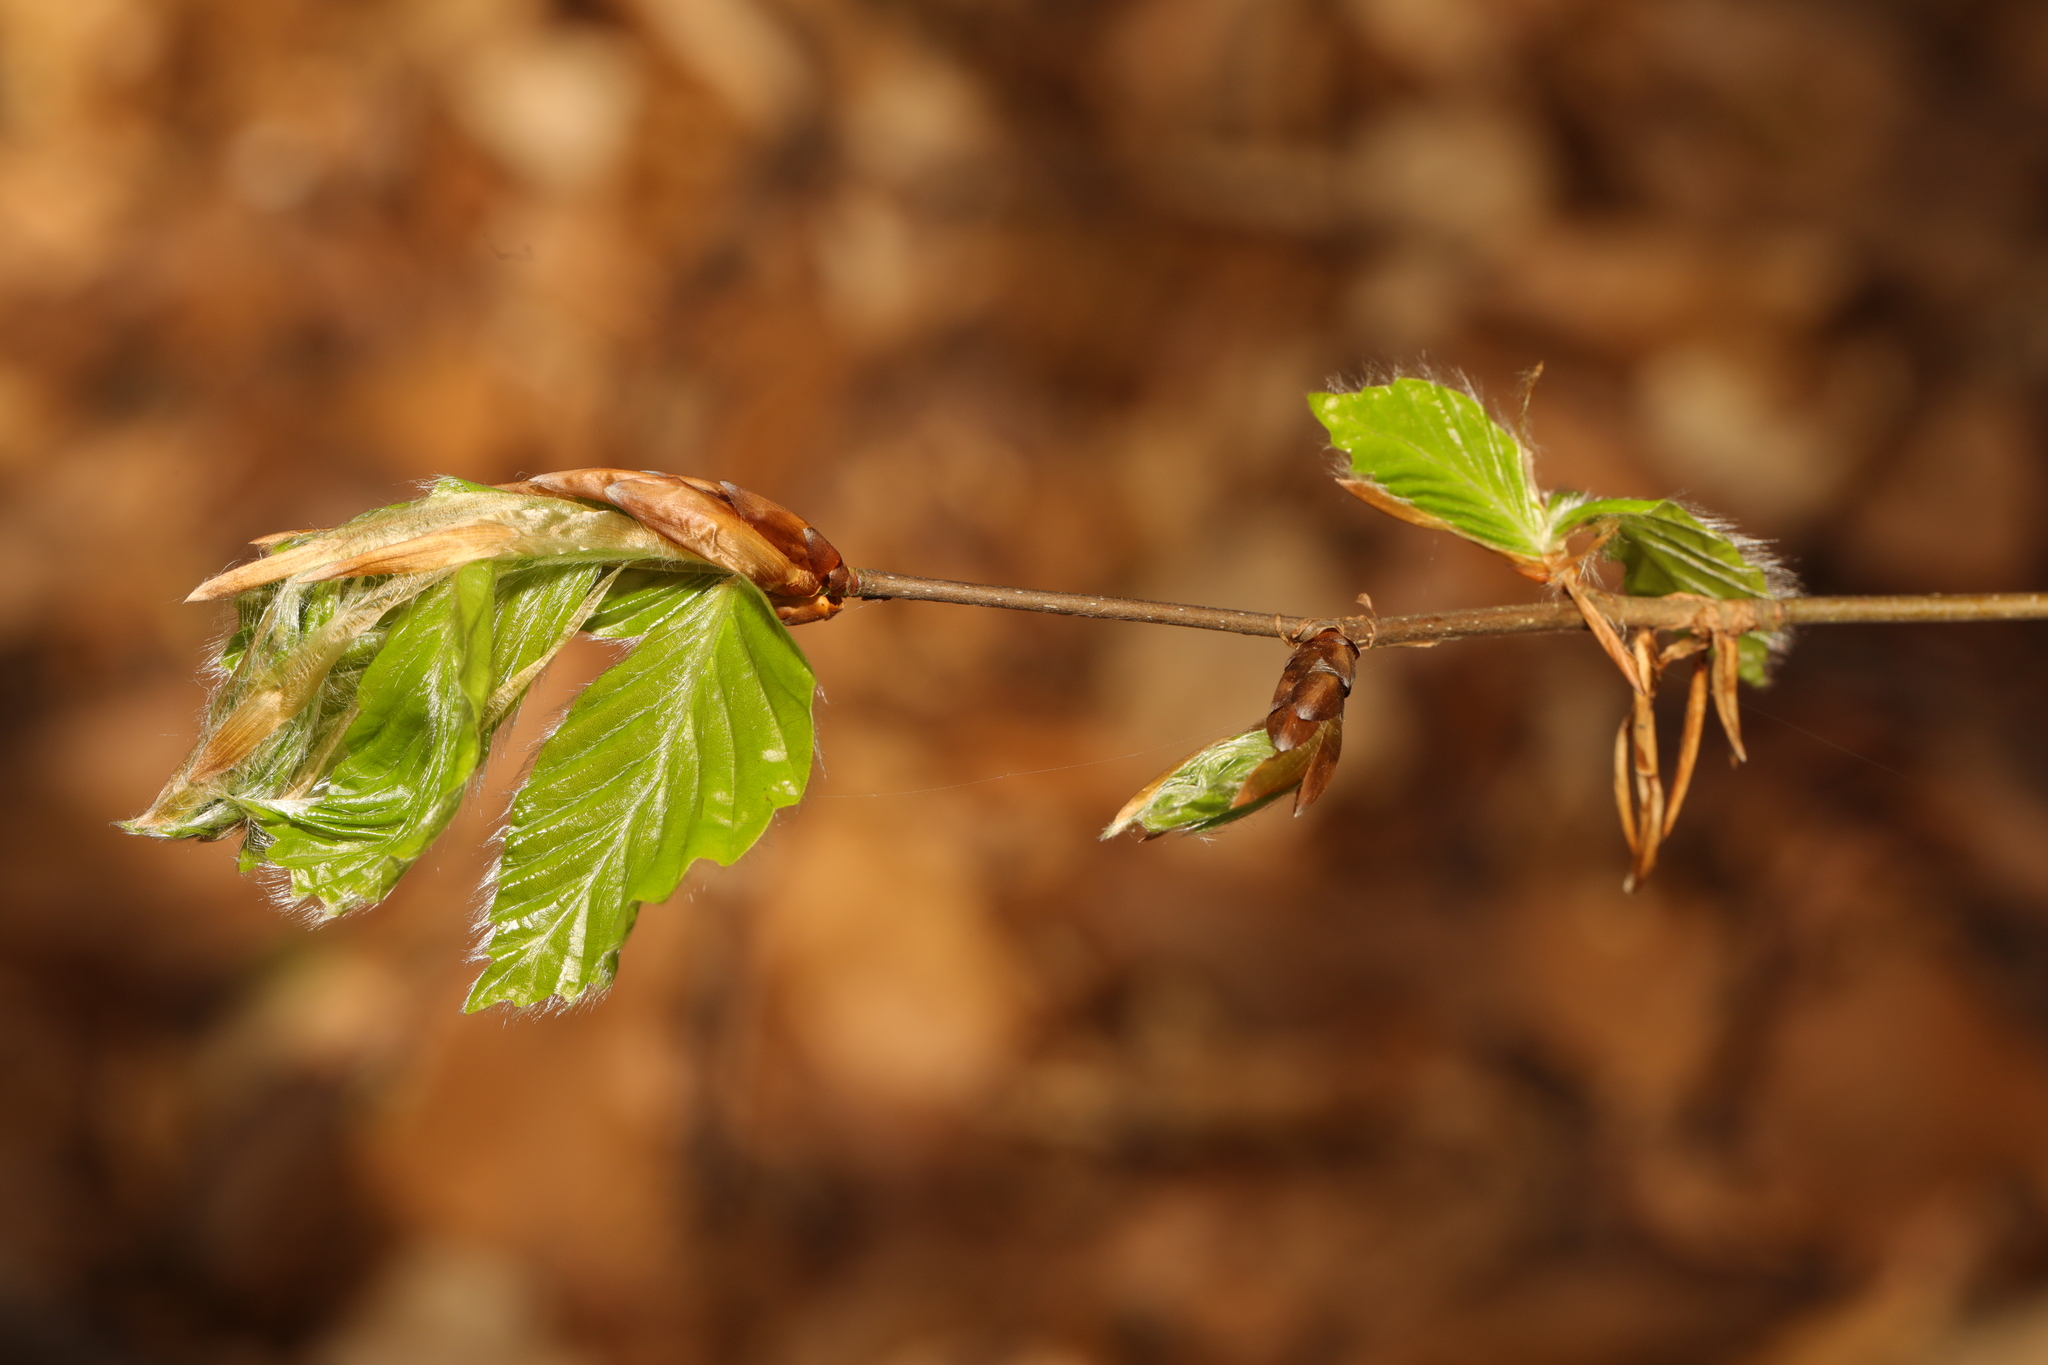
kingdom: Plantae
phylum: Tracheophyta
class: Magnoliopsida
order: Fagales
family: Fagaceae
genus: Fagus
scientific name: Fagus sylvatica
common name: Beech
